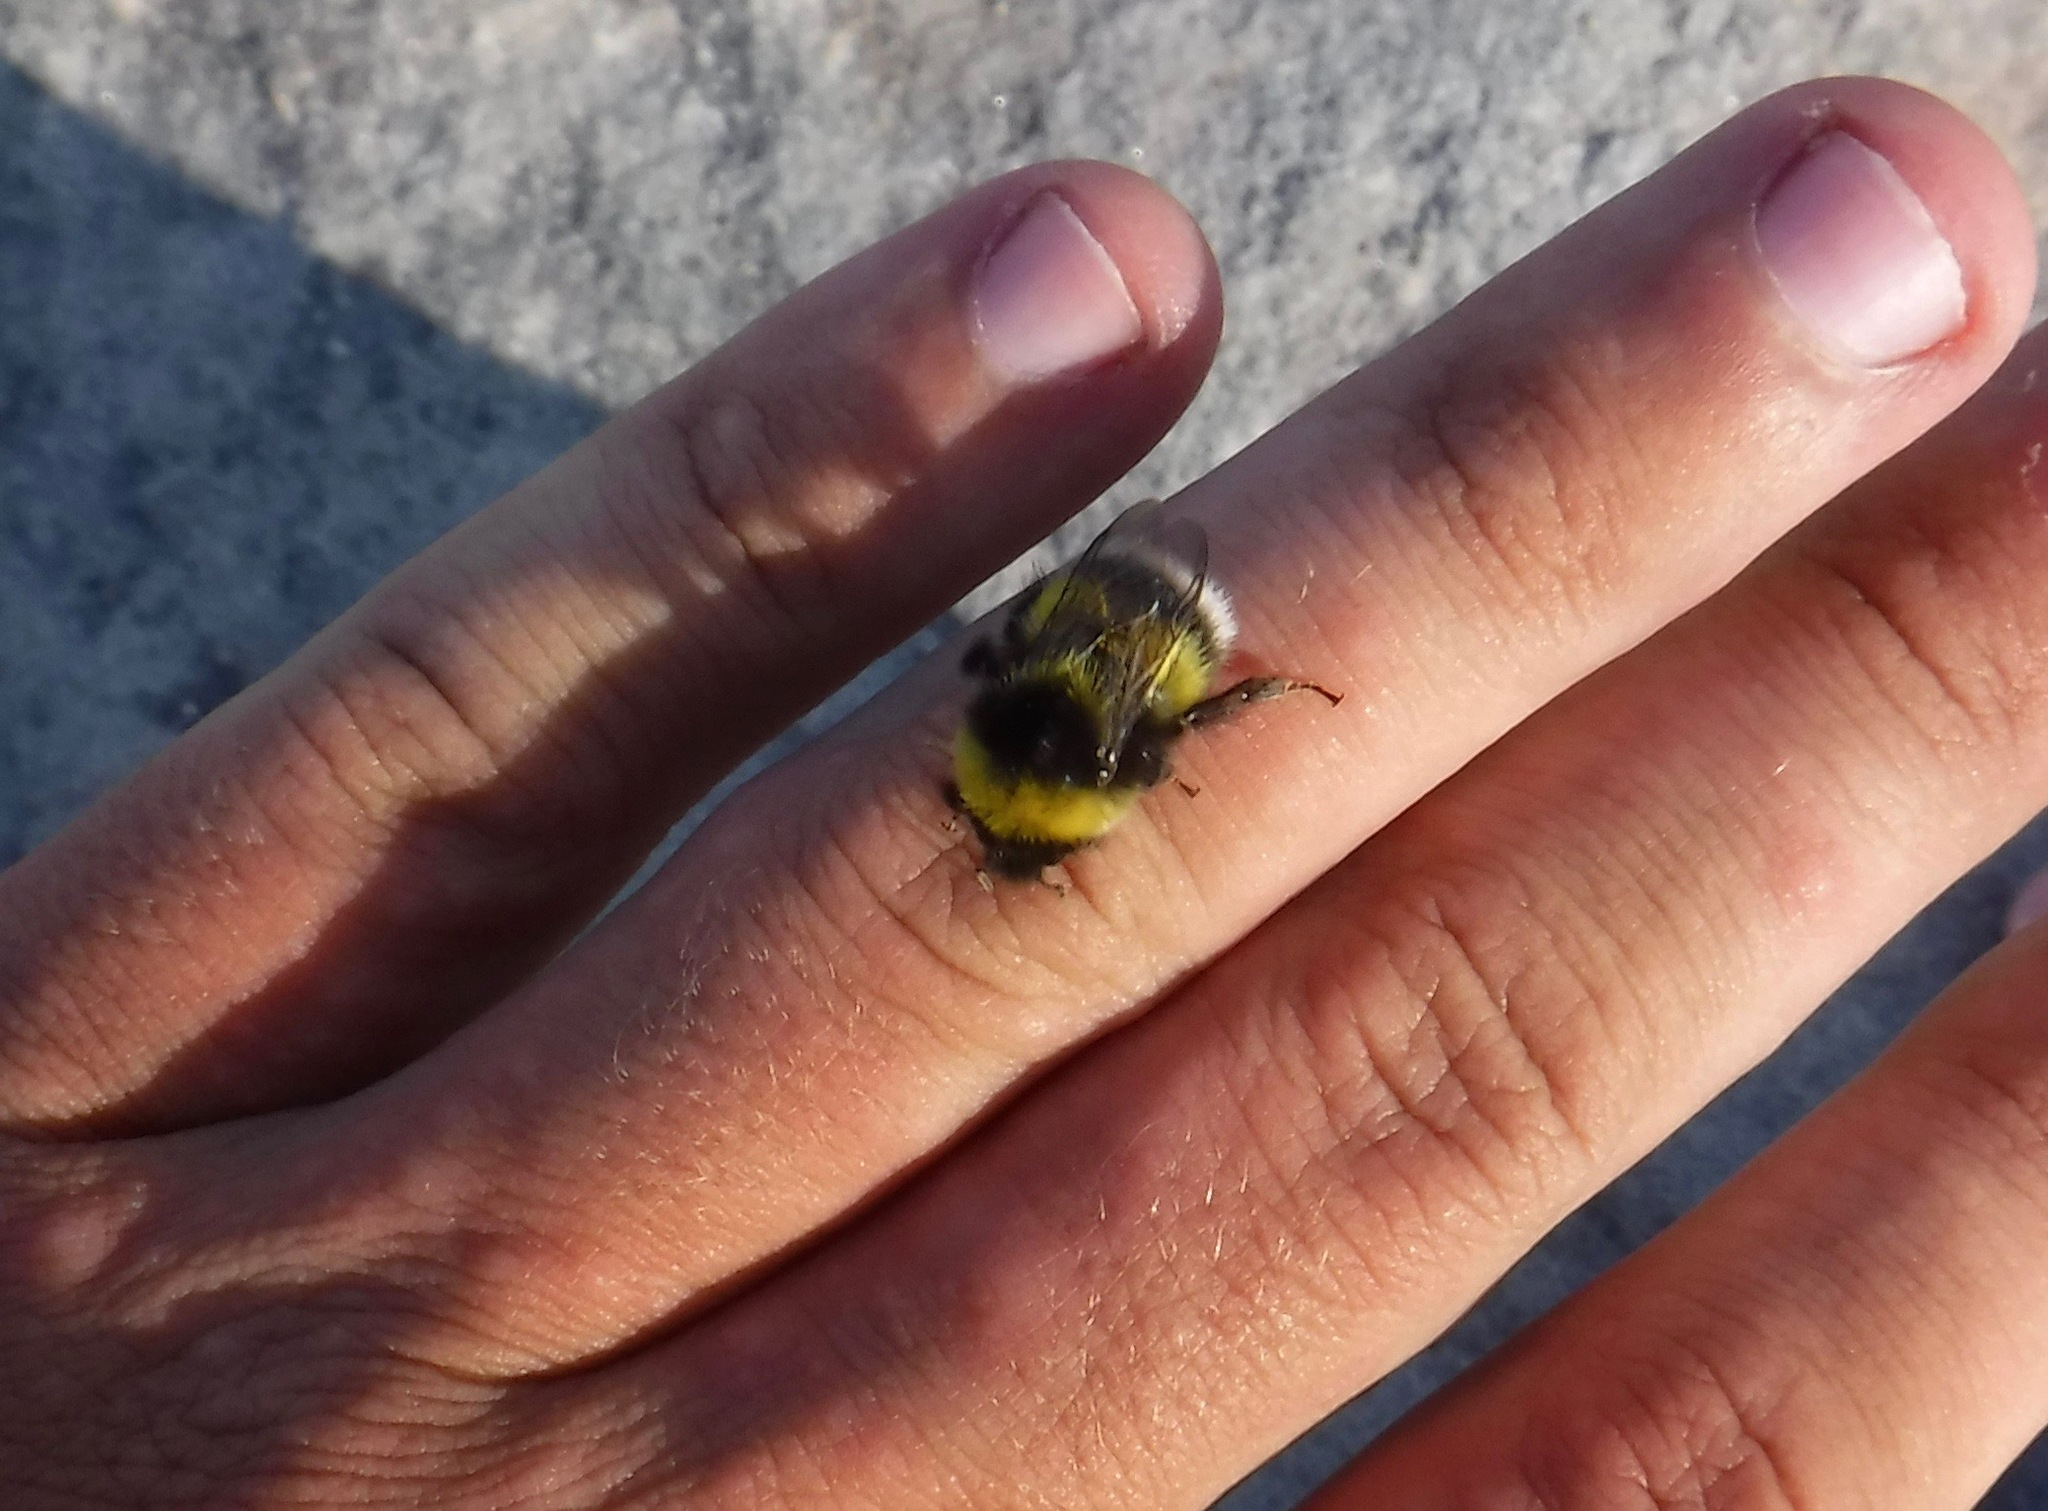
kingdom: Animalia
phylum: Arthropoda
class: Insecta
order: Hymenoptera
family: Apidae
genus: Bombus
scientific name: Bombus cryptarum
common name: Cryptic bumblebee
